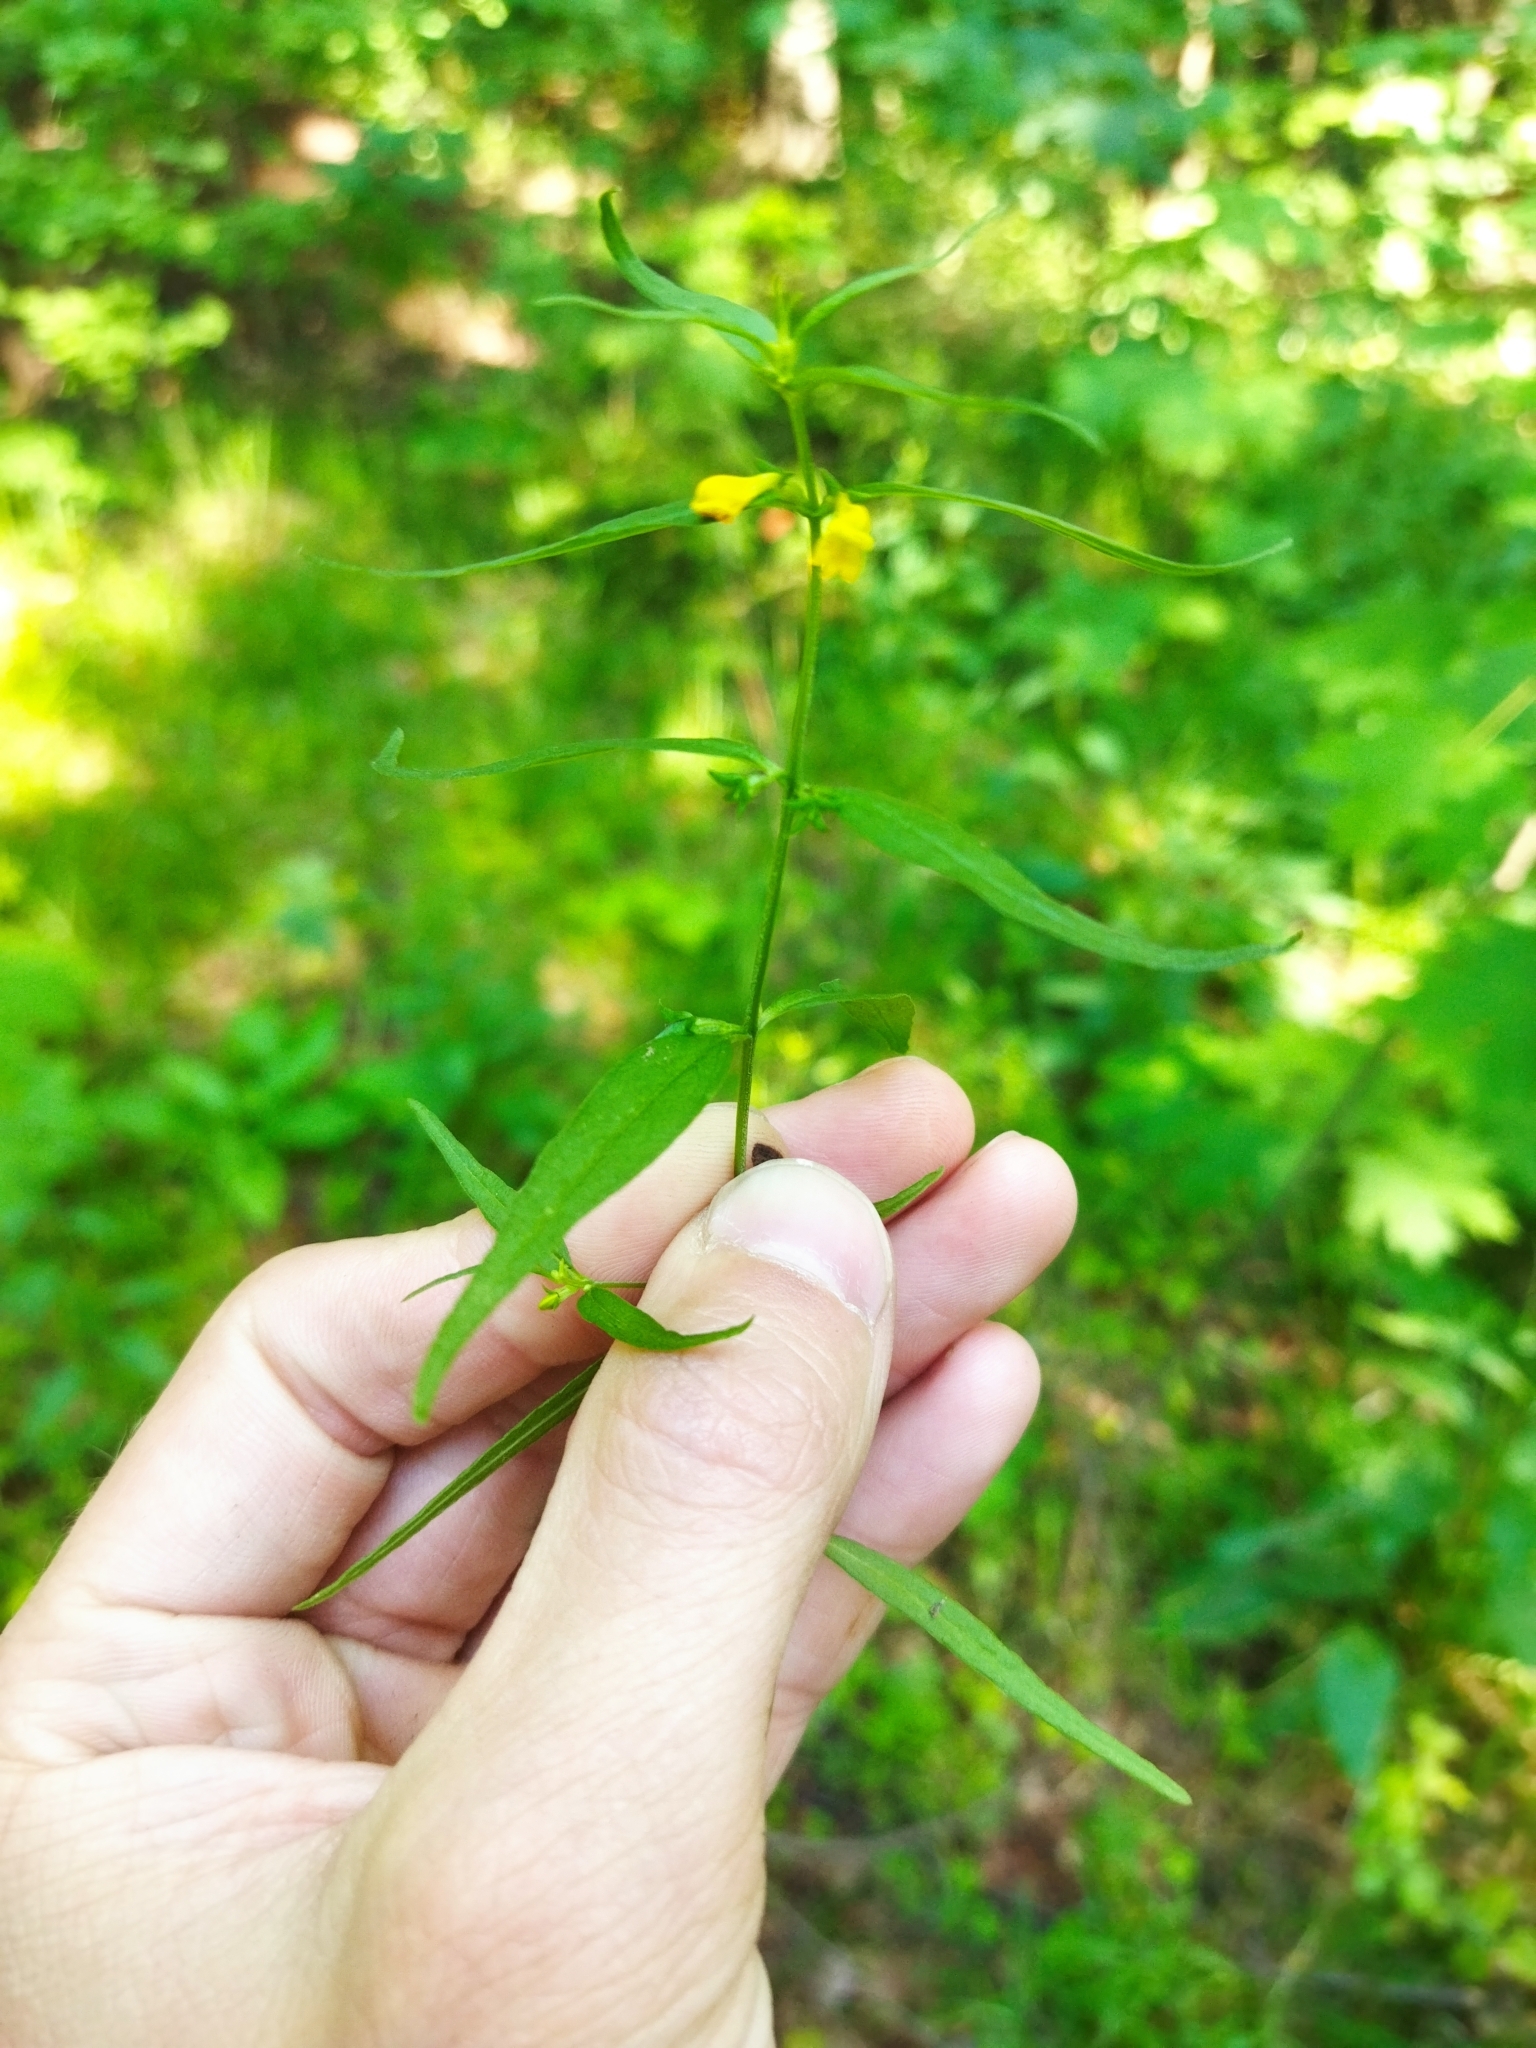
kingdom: Plantae
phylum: Tracheophyta
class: Magnoliopsida
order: Lamiales
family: Orobanchaceae
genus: Melampyrum
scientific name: Melampyrum sylvaticum
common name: Small cow-wheat
